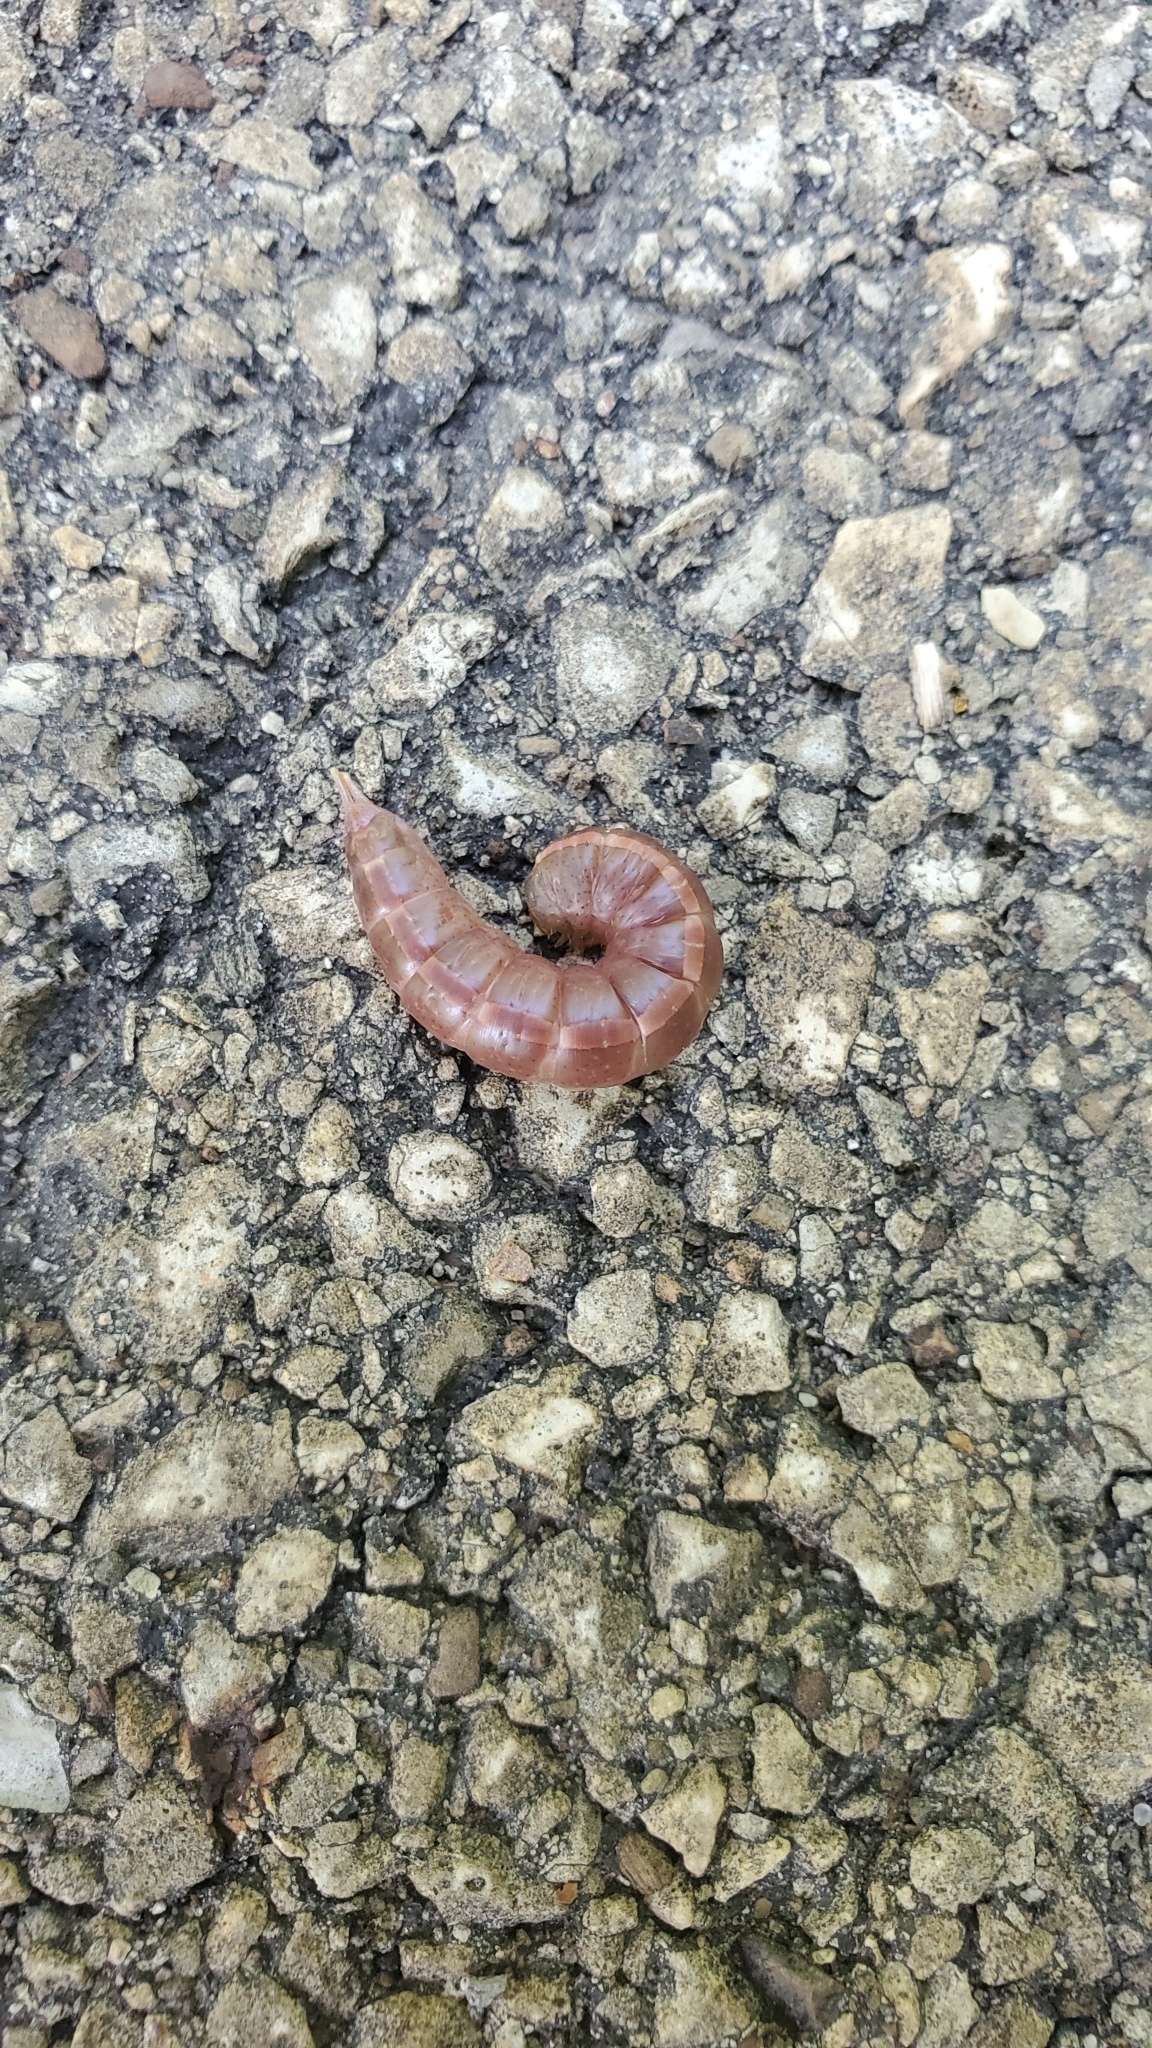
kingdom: Animalia
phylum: Arthropoda
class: Insecta
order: Lepidoptera
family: Notodontidae
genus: Misogada
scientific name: Misogada unicolor
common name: Drab prominent
